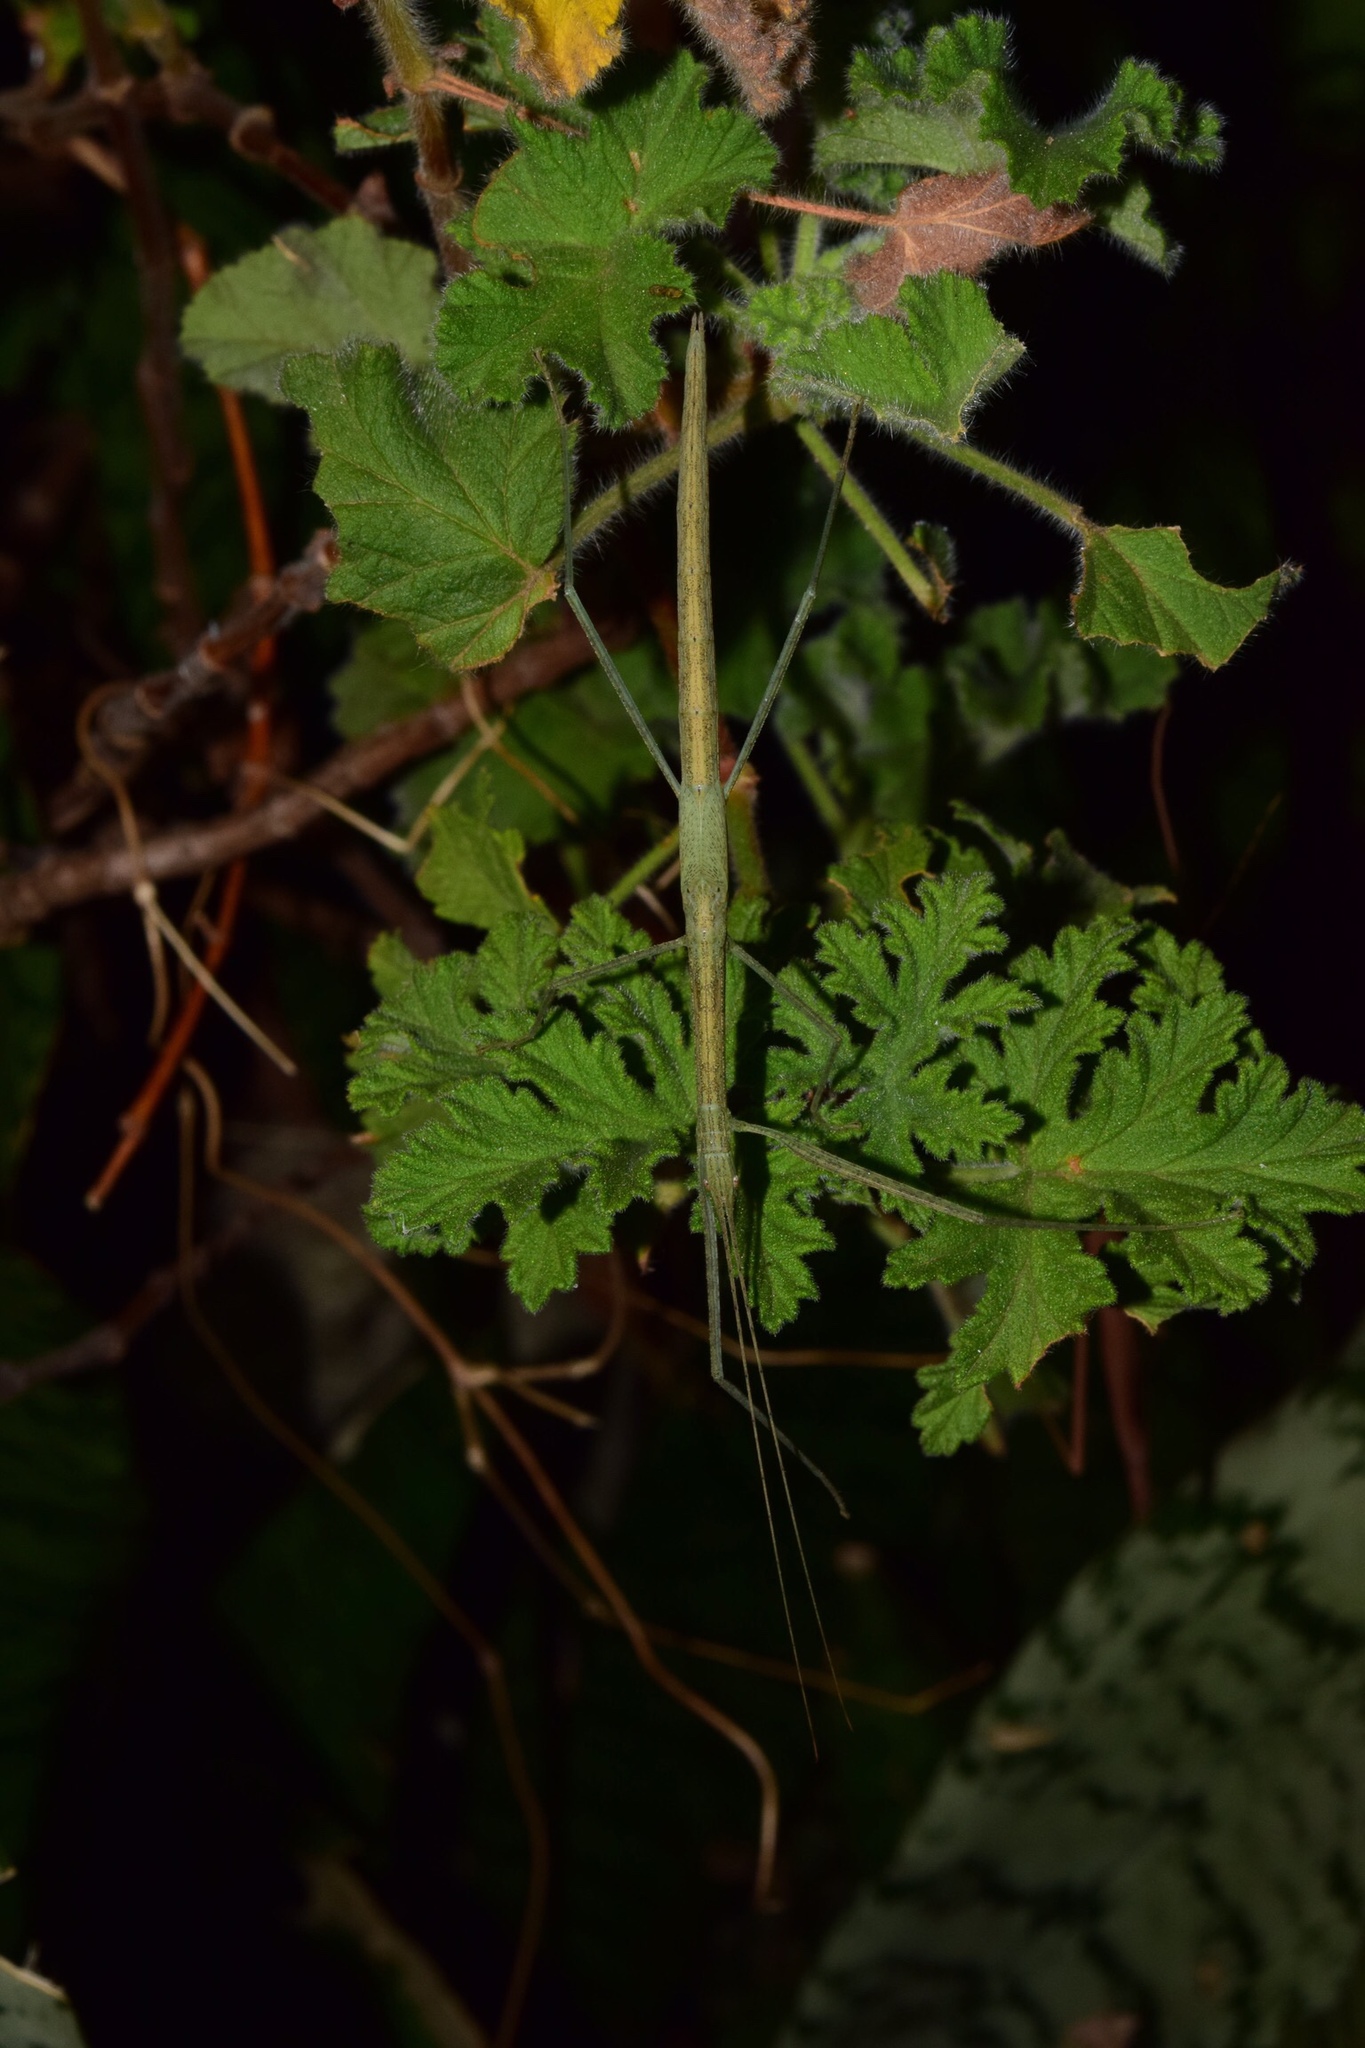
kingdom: Animalia
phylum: Arthropoda
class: Insecta
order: Phasmida
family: Lonchodidae
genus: Sipyloidea
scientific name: Sipyloidea sipylus
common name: Madagascan stick insect
